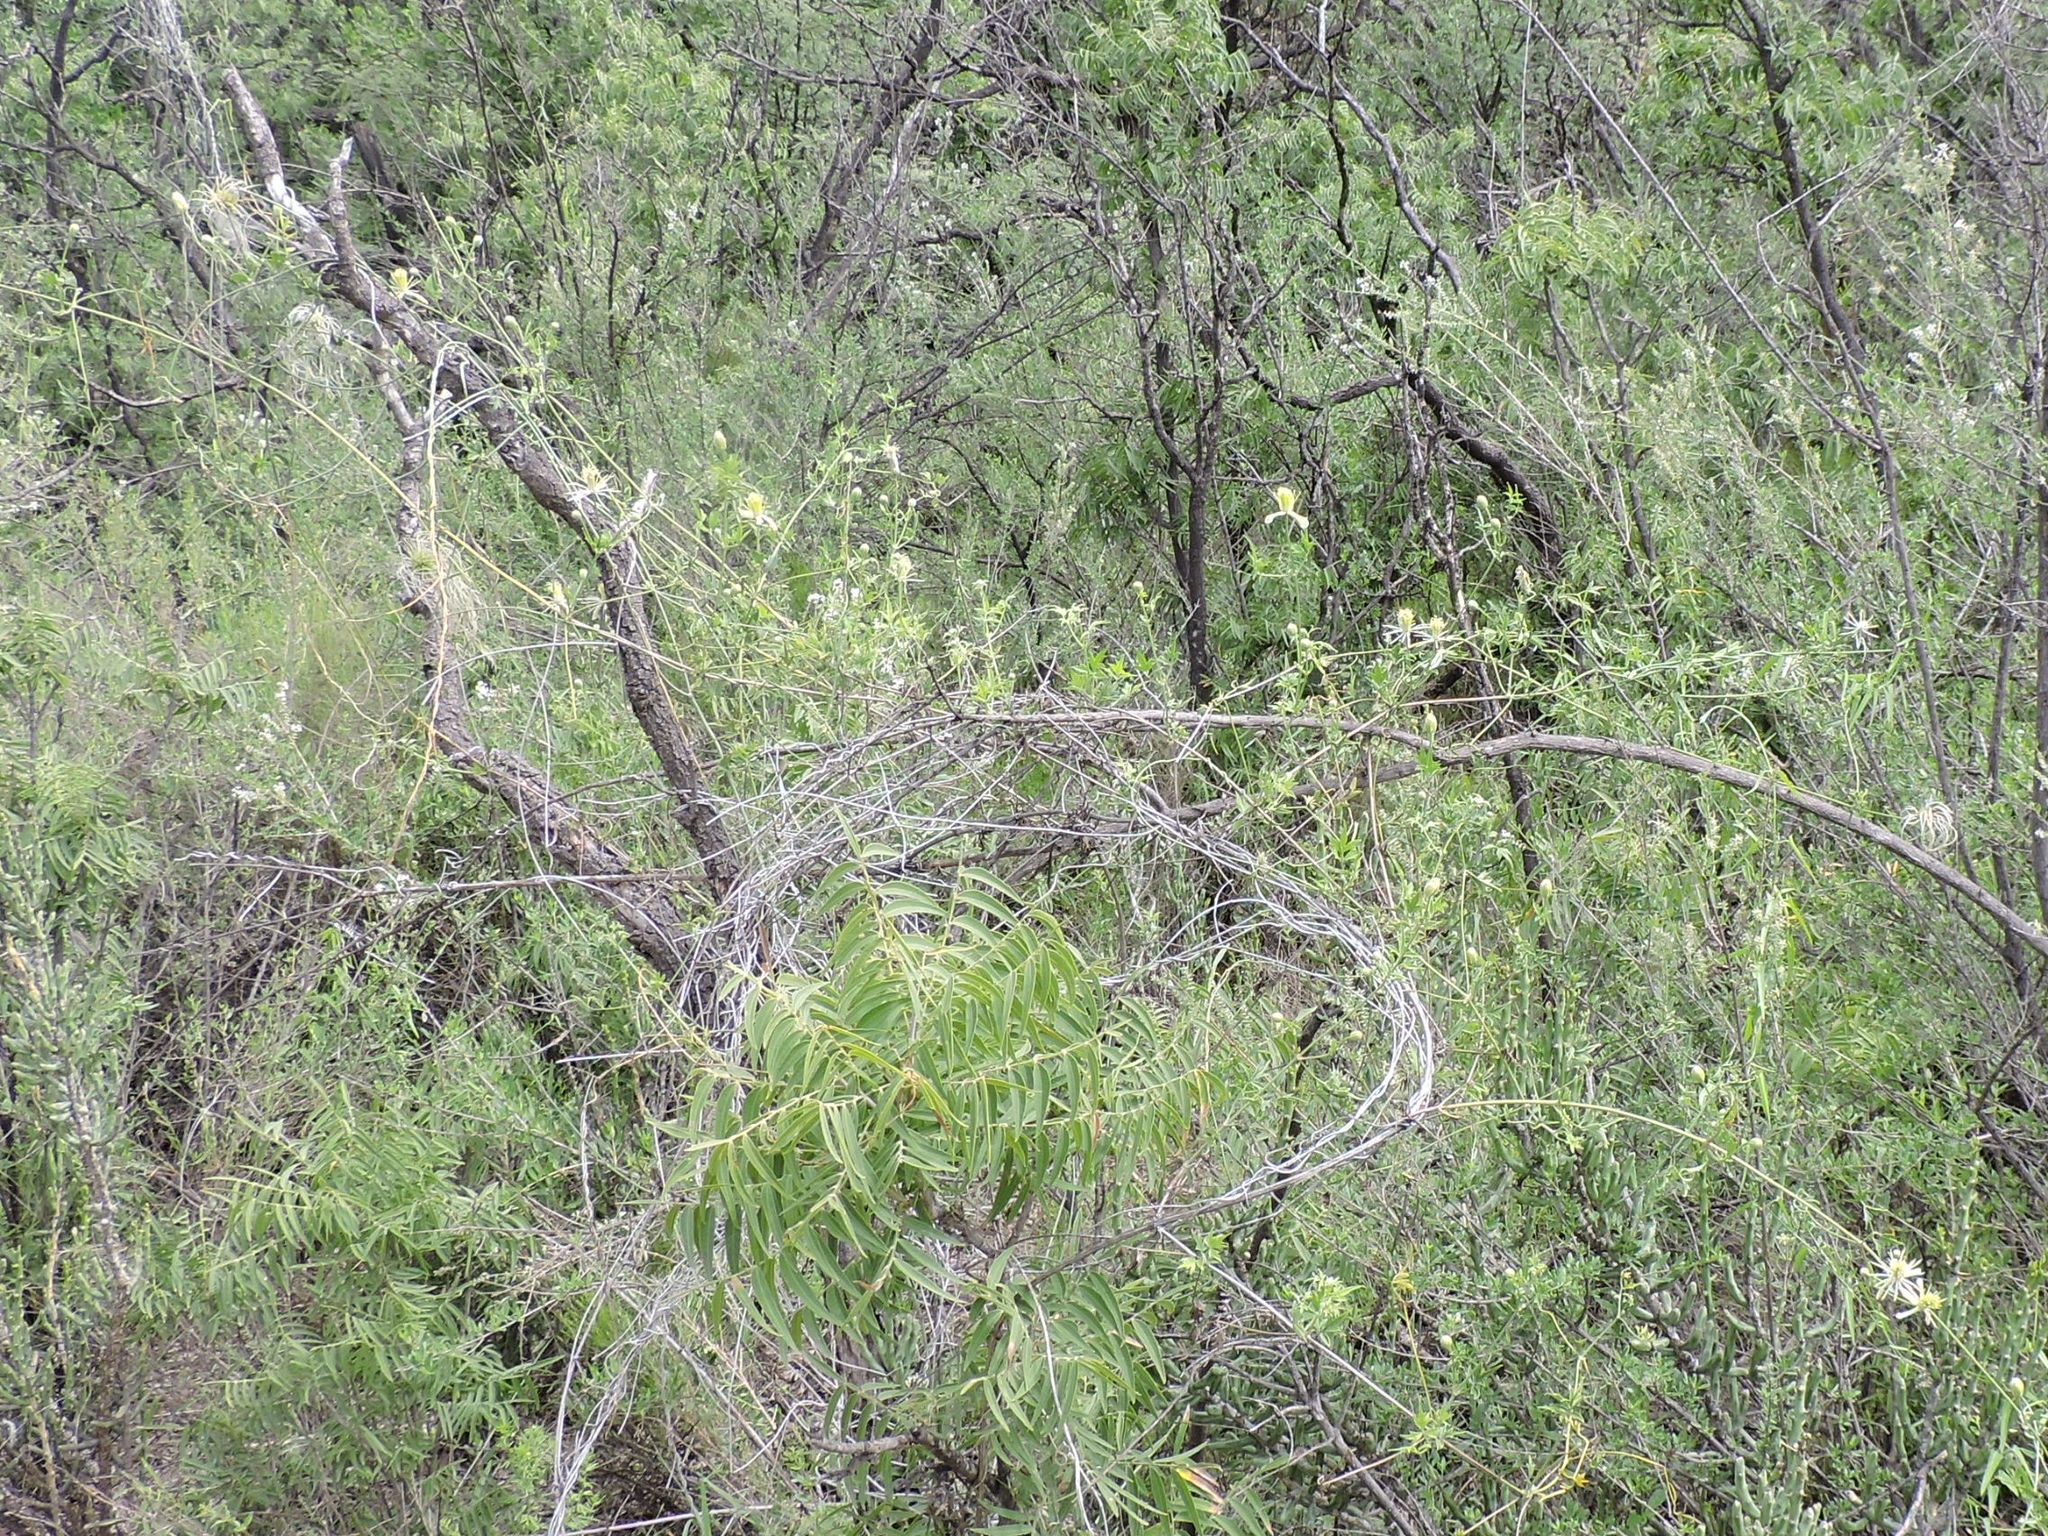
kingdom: Plantae
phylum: Tracheophyta
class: Magnoliopsida
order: Ranunculales
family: Ranunculaceae
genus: Clematis
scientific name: Clematis drummondii
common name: Texas virgin's bower
